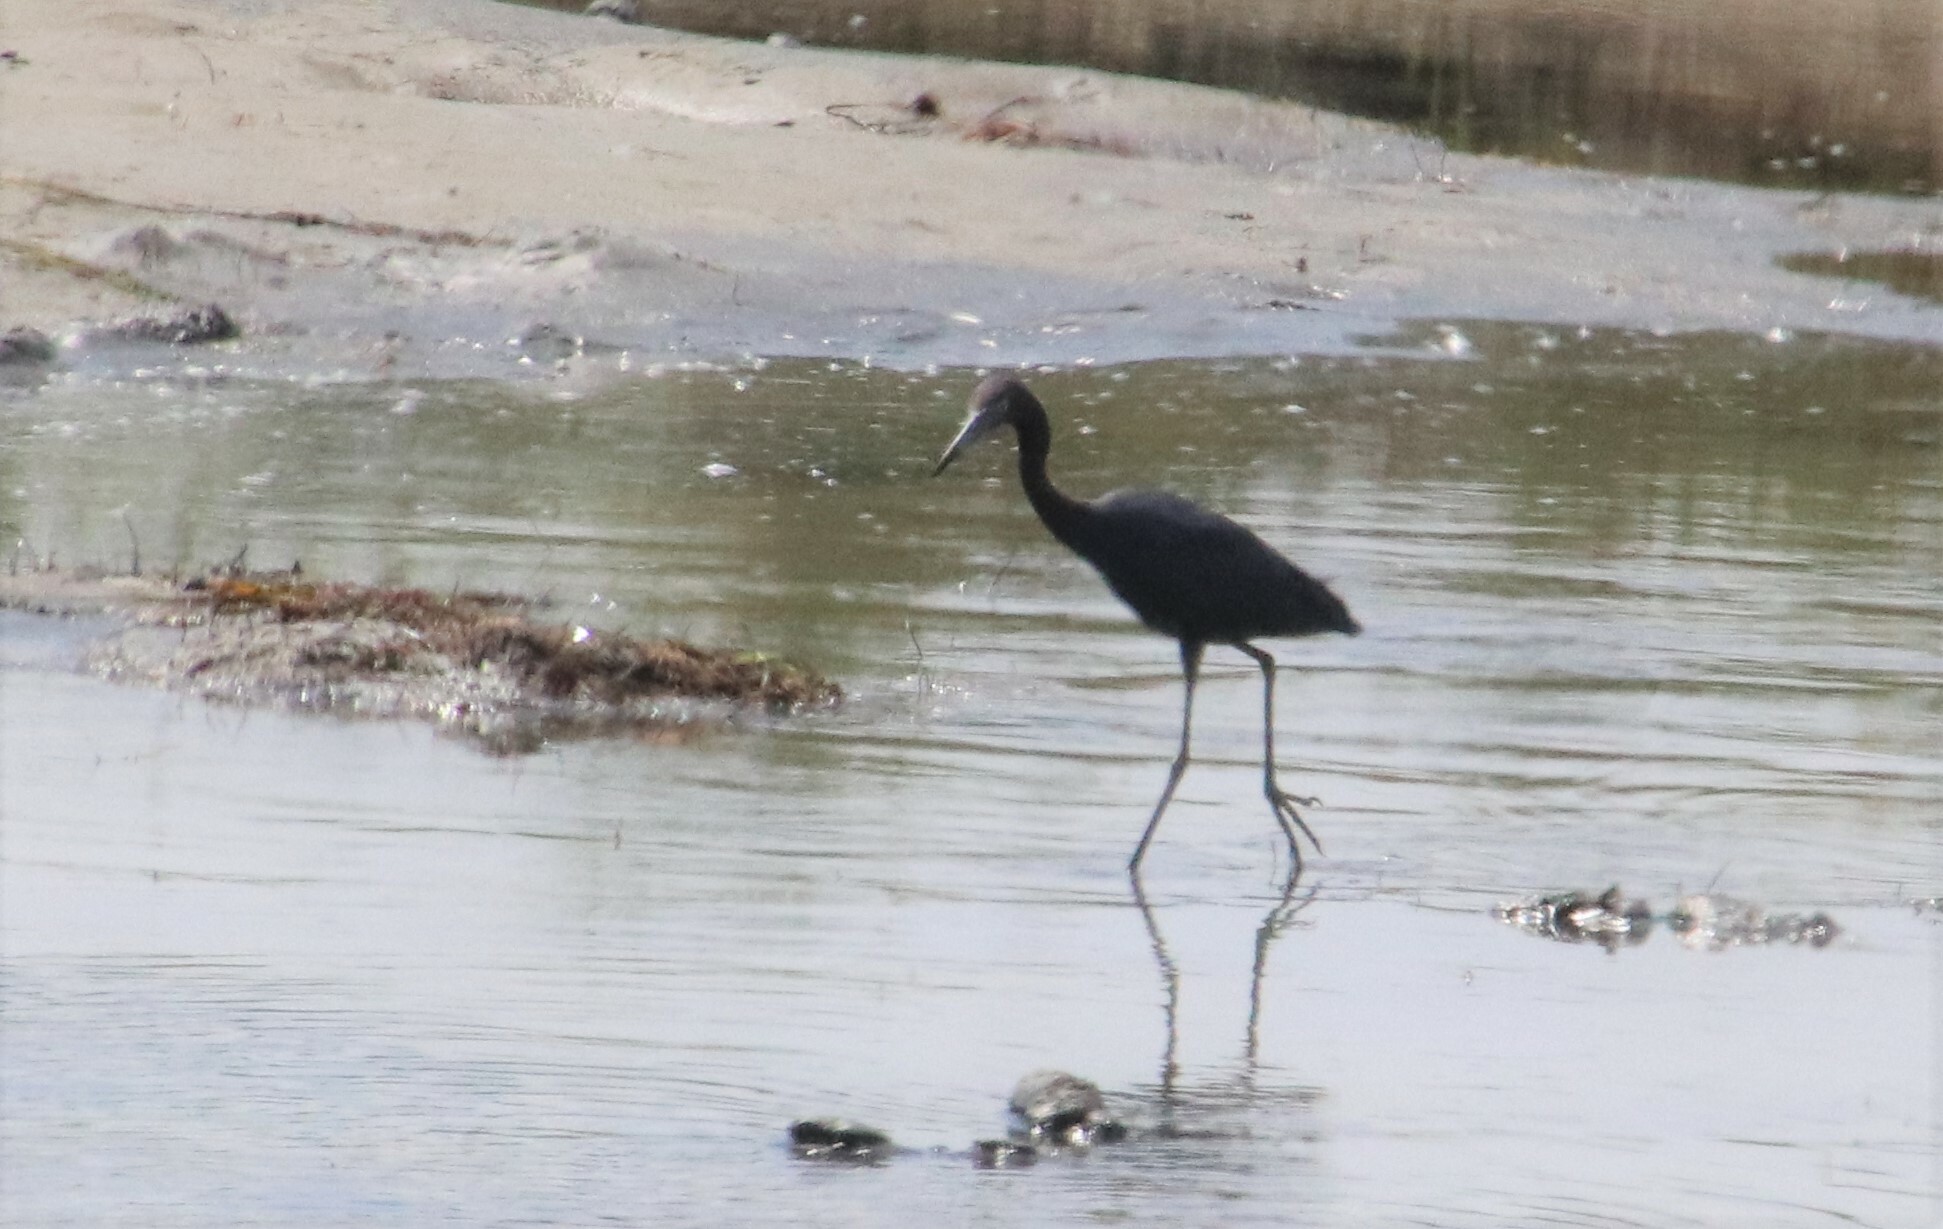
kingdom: Animalia
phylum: Chordata
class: Aves
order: Pelecaniformes
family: Ardeidae
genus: Egretta
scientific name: Egretta caerulea
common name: Little blue heron
